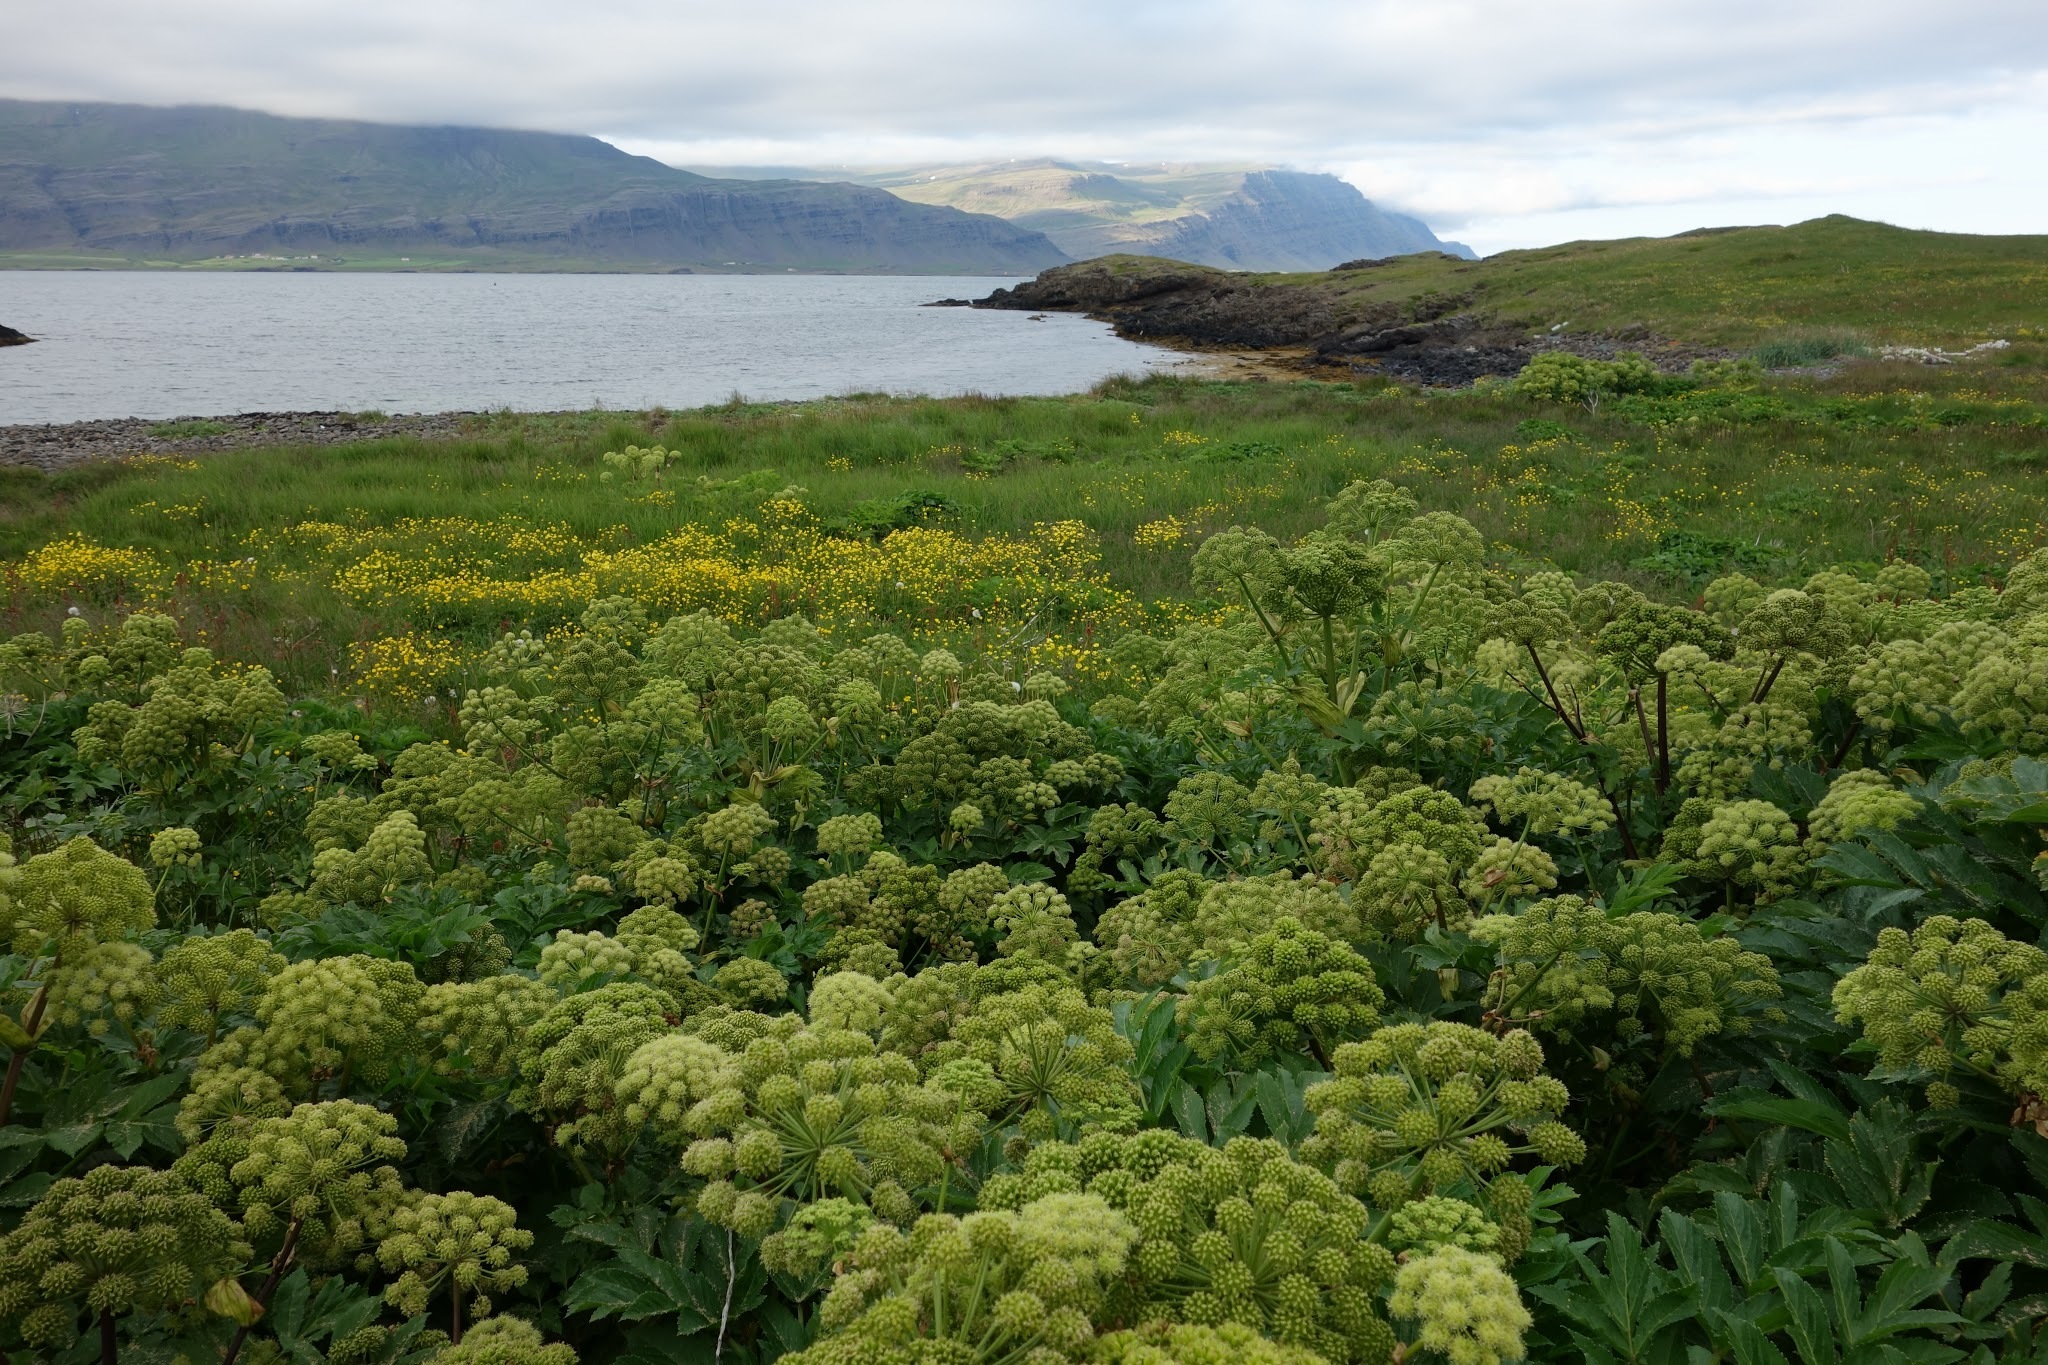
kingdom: Plantae
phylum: Tracheophyta
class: Magnoliopsida
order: Apiales
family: Apiaceae
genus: Angelica
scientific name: Angelica archangelica
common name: Garden angelica
